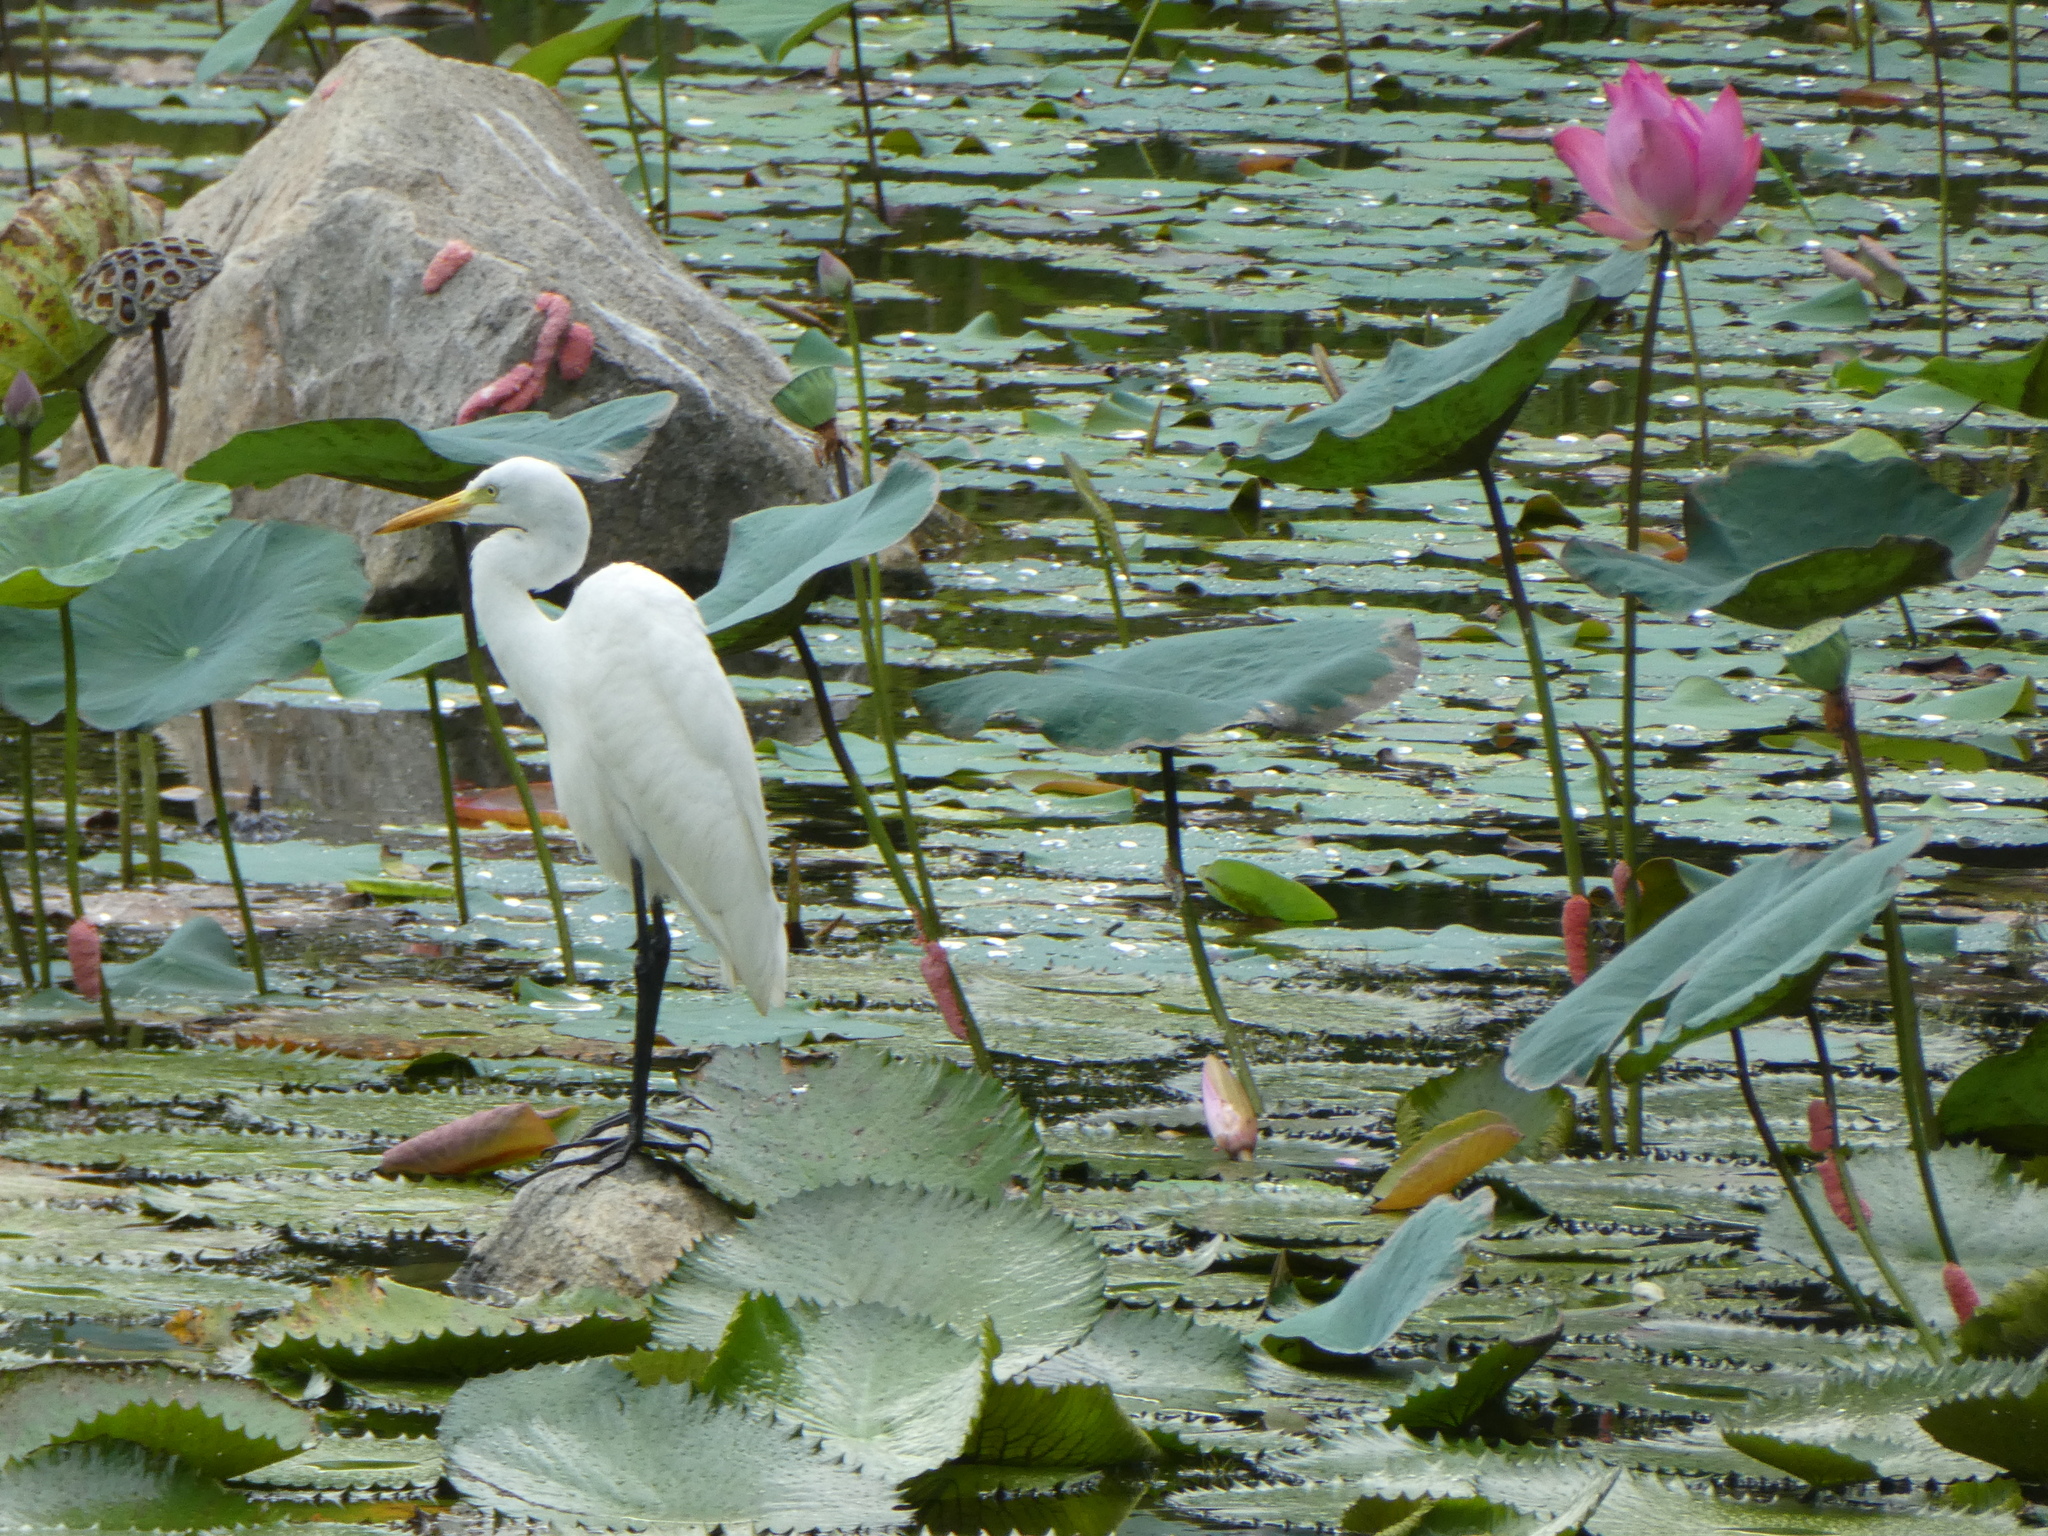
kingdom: Animalia
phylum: Chordata
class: Aves
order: Pelecaniformes
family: Ardeidae
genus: Egretta
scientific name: Egretta intermedia
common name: Intermediate egret
